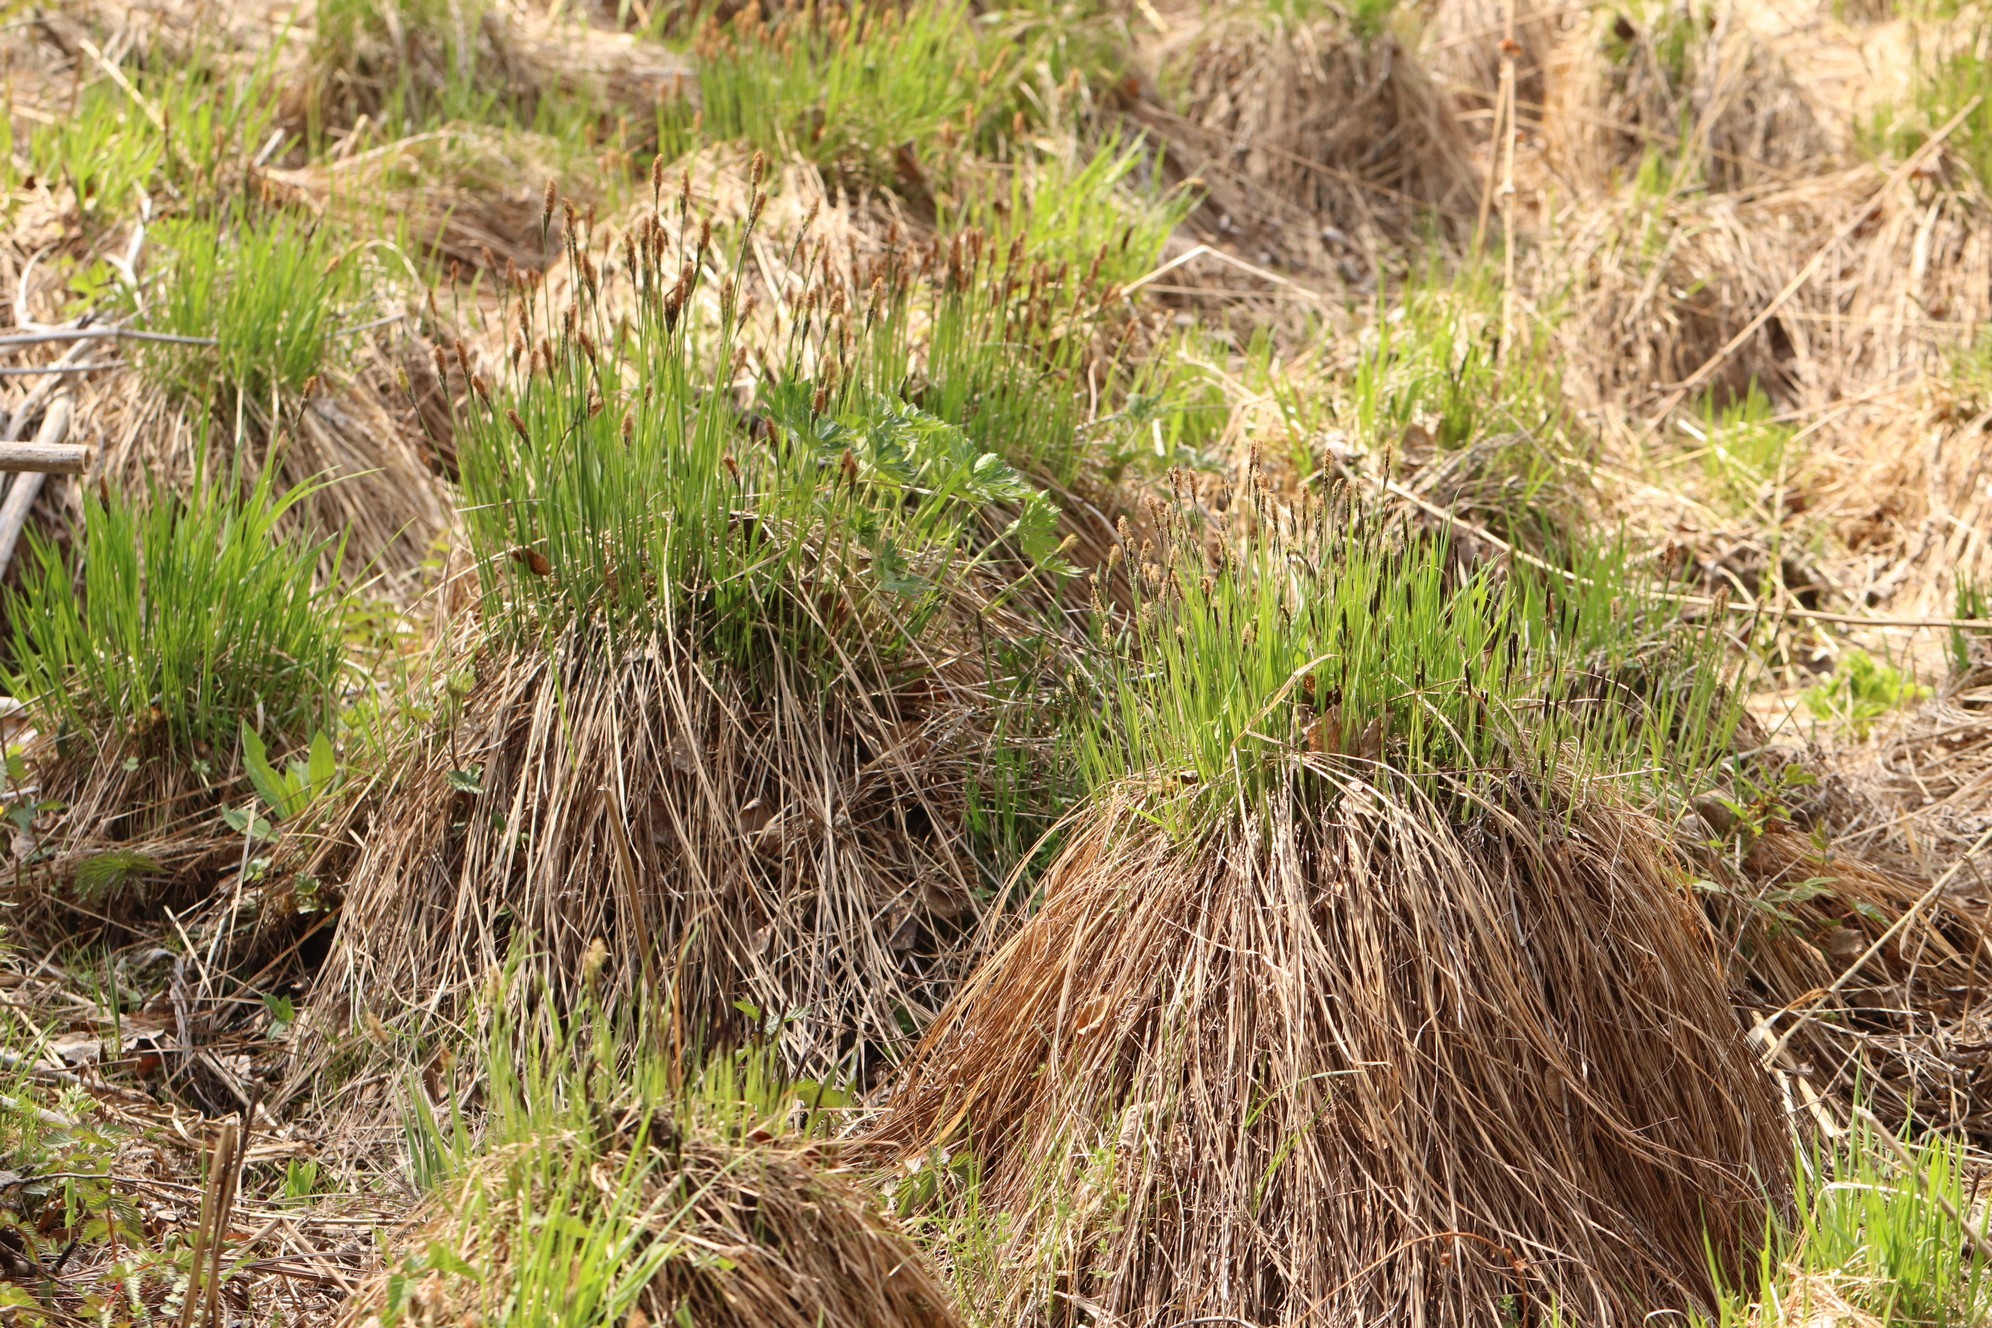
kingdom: Plantae
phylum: Tracheophyta
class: Liliopsida
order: Poales
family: Cyperaceae
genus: Carex
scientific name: Carex cespitosa
